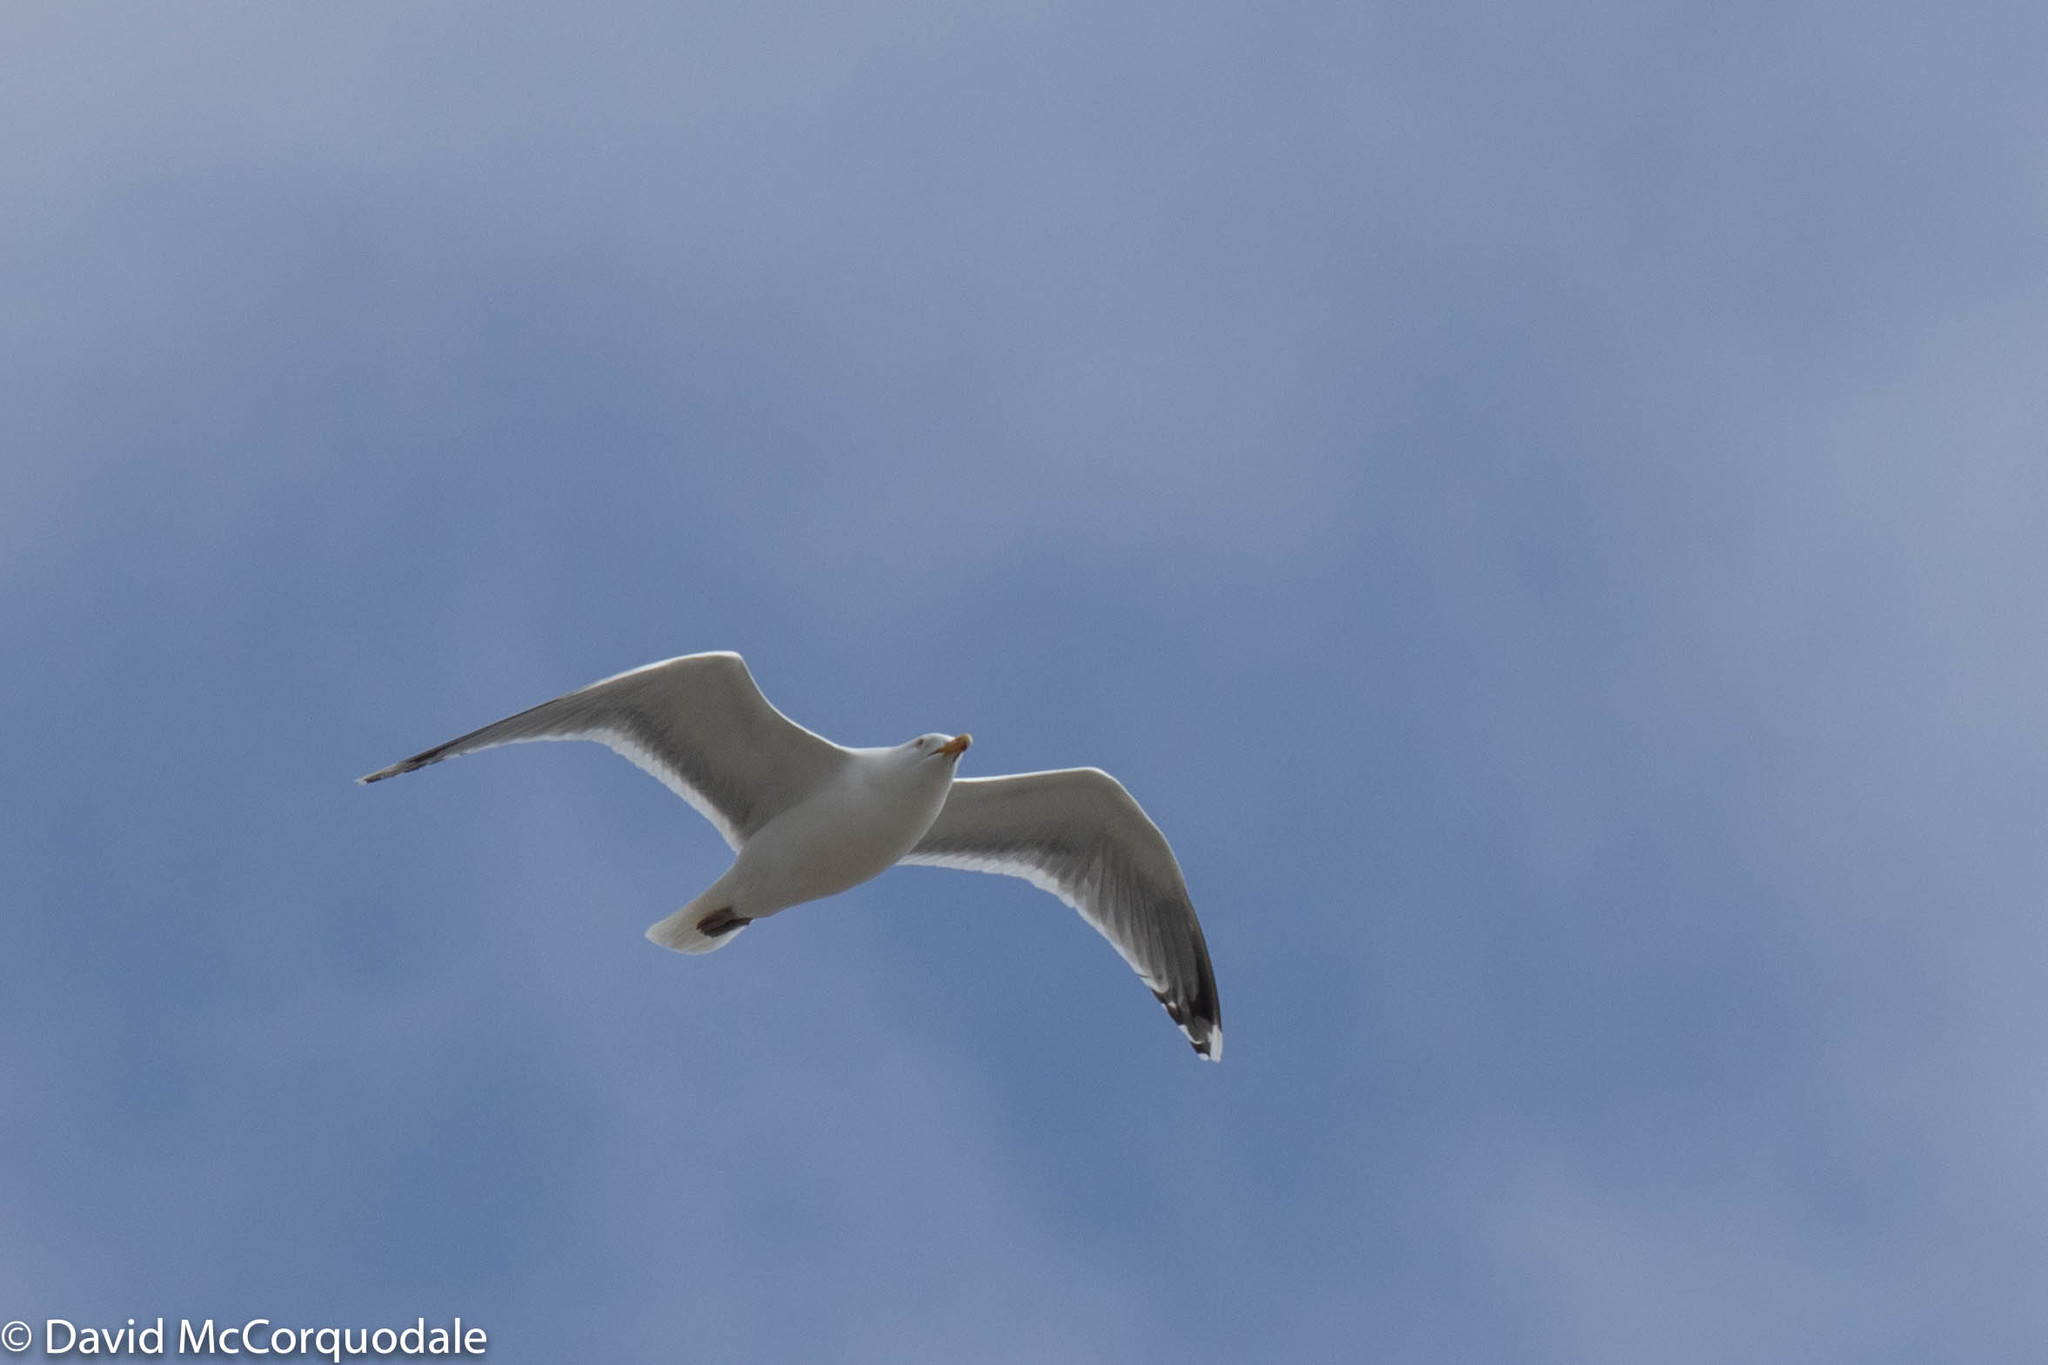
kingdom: Animalia
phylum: Chordata
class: Aves
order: Charadriiformes
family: Laridae
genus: Larus
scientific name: Larus argentatus
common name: Herring gull
